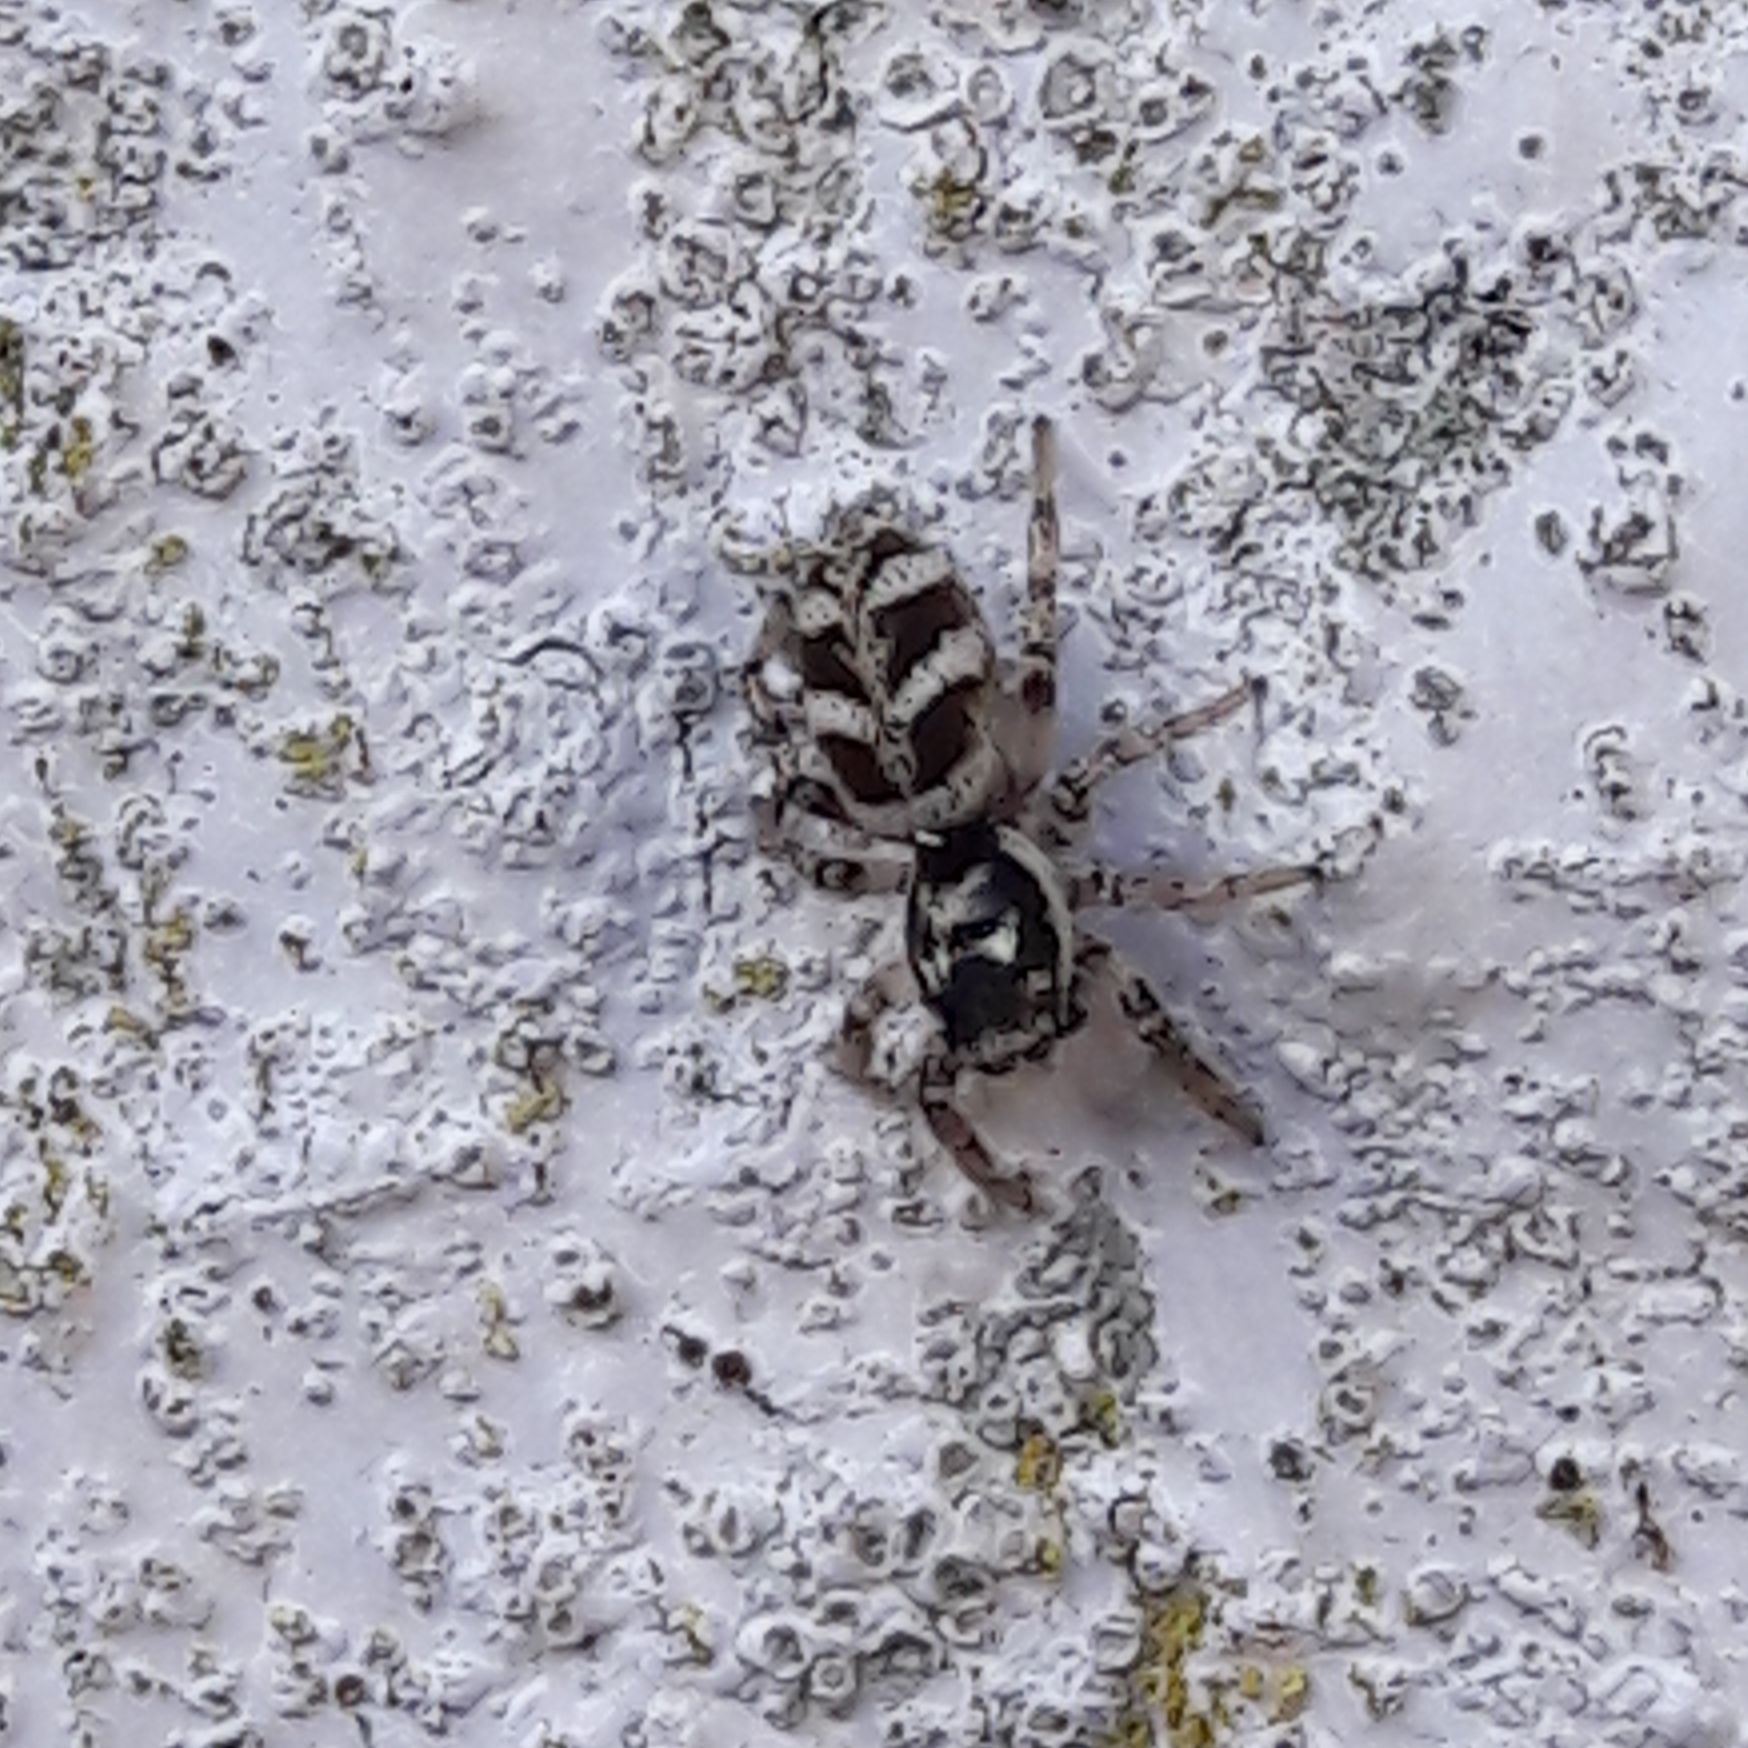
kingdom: Animalia
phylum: Arthropoda
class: Arachnida
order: Araneae
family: Salticidae
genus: Salticus
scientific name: Salticus scenicus
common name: Zebra jumper
